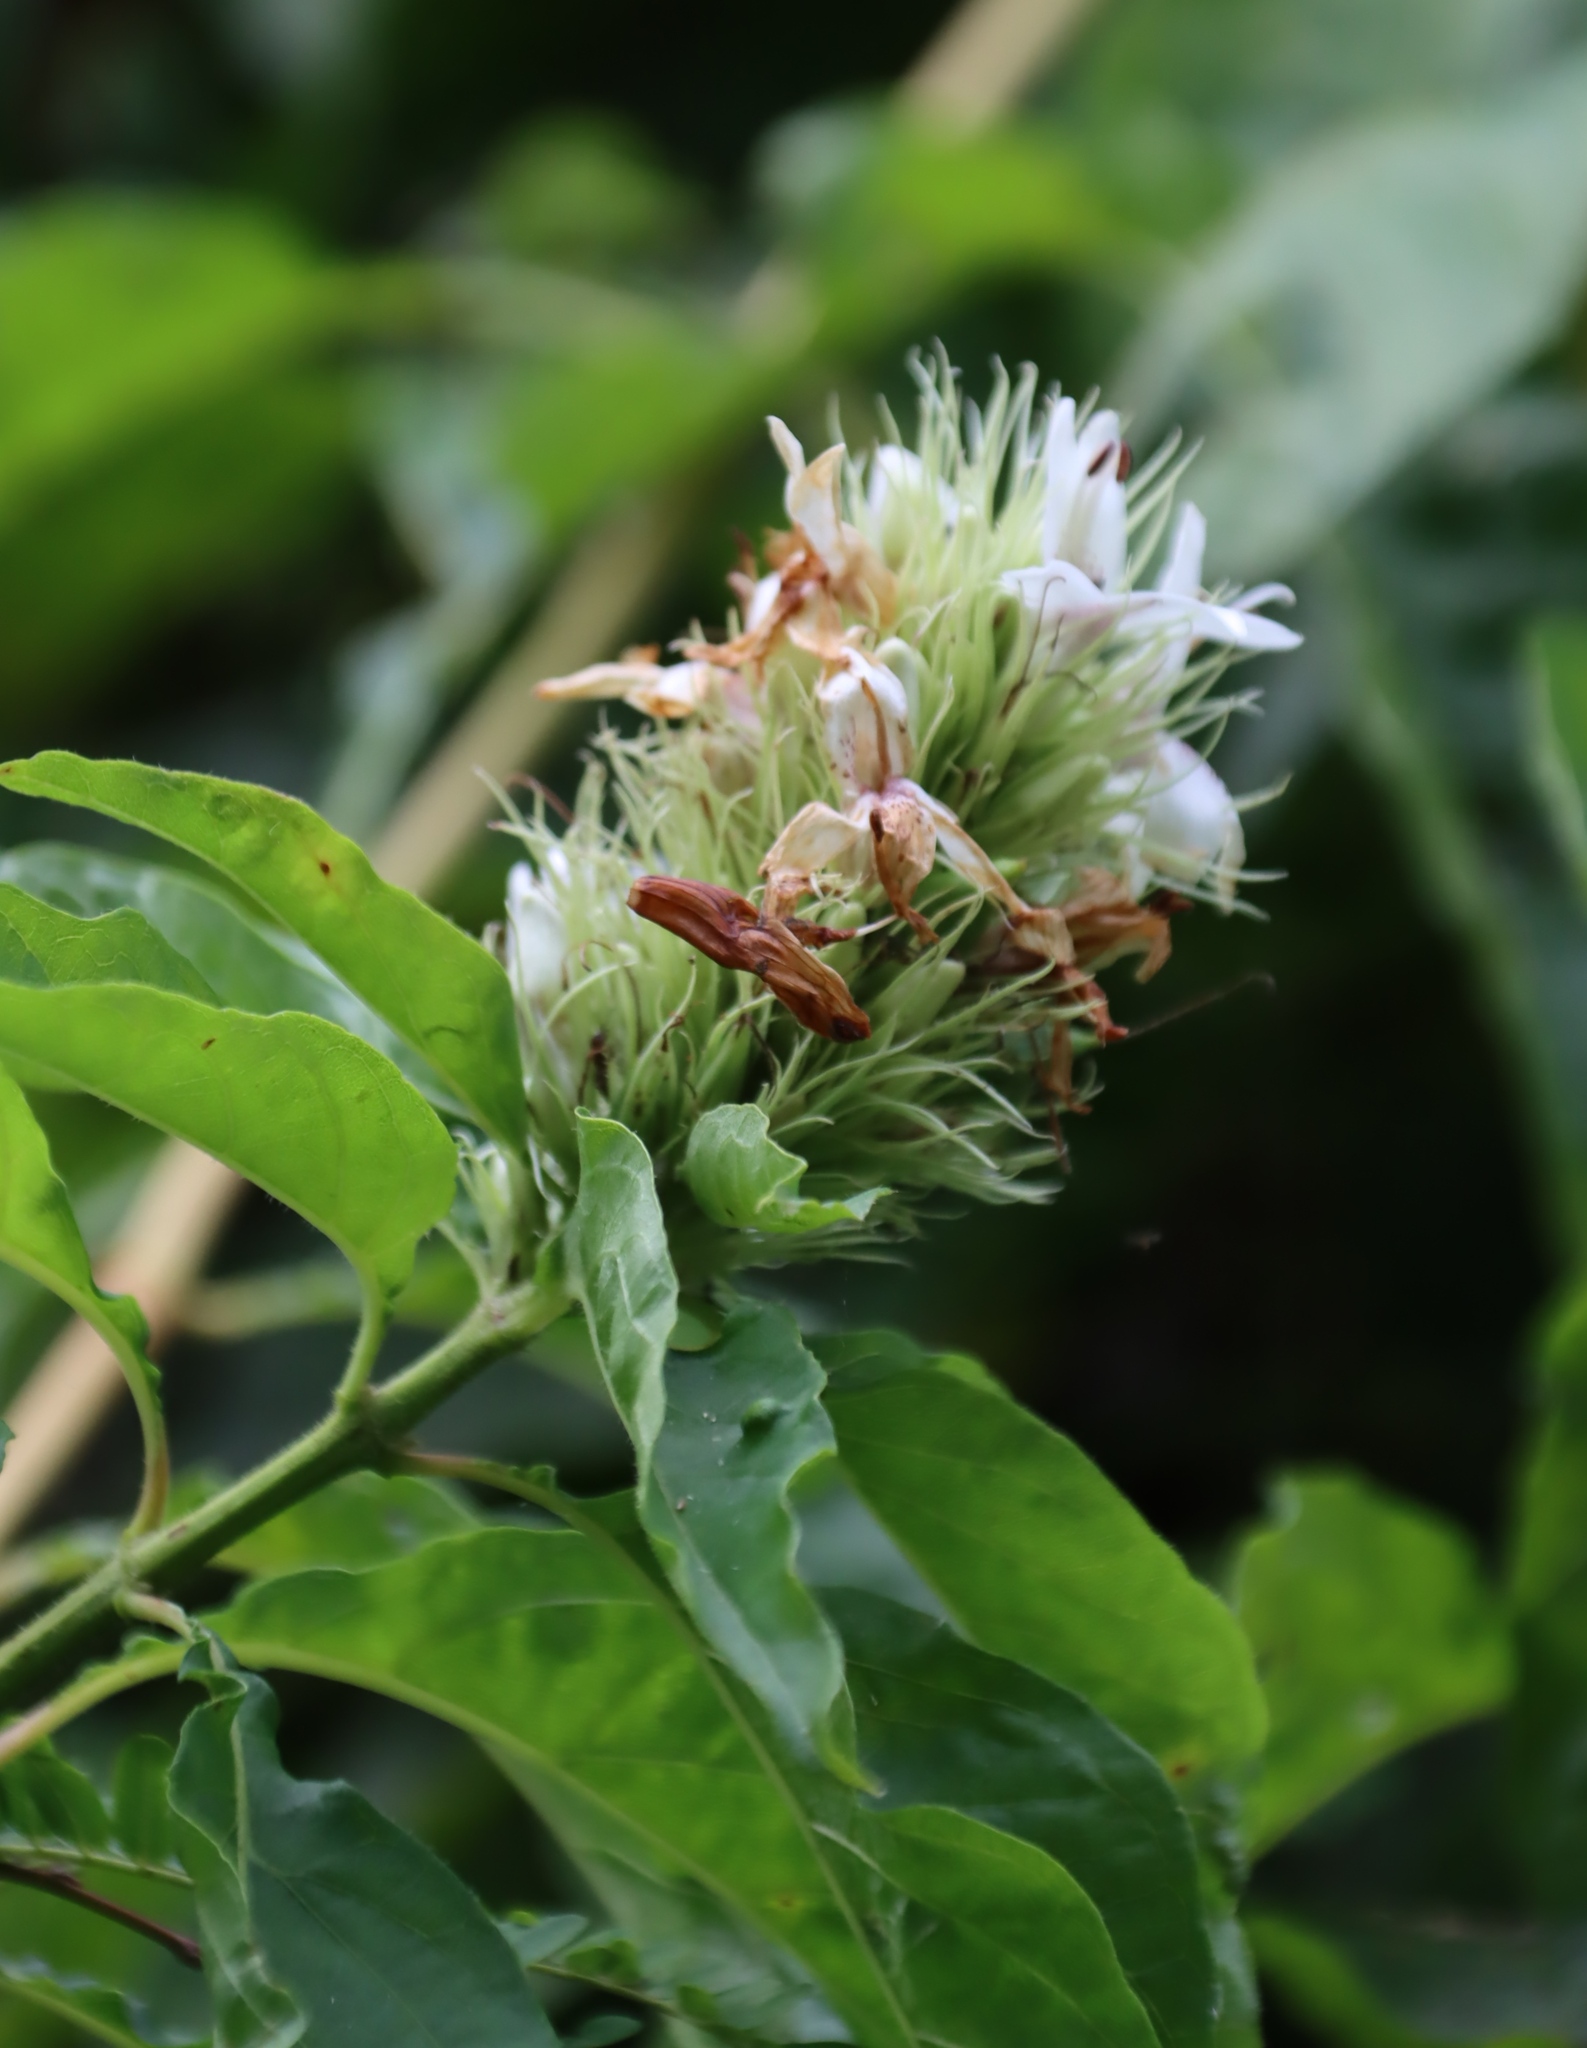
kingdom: Plantae
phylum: Tracheophyta
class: Magnoliopsida
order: Lamiales
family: Acanthaceae
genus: Ruttya
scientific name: Ruttya ovata
